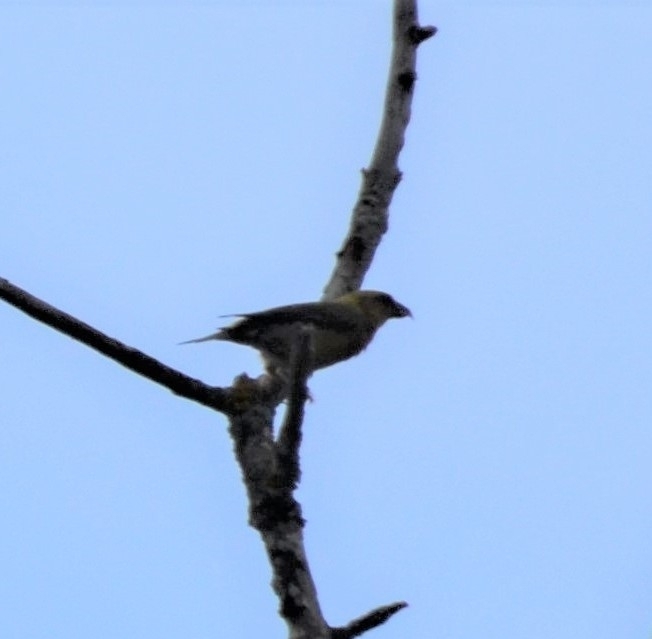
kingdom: Animalia
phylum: Chordata
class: Aves
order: Passeriformes
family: Fringillidae
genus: Loxia
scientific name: Loxia curvirostra
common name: Red crossbill
